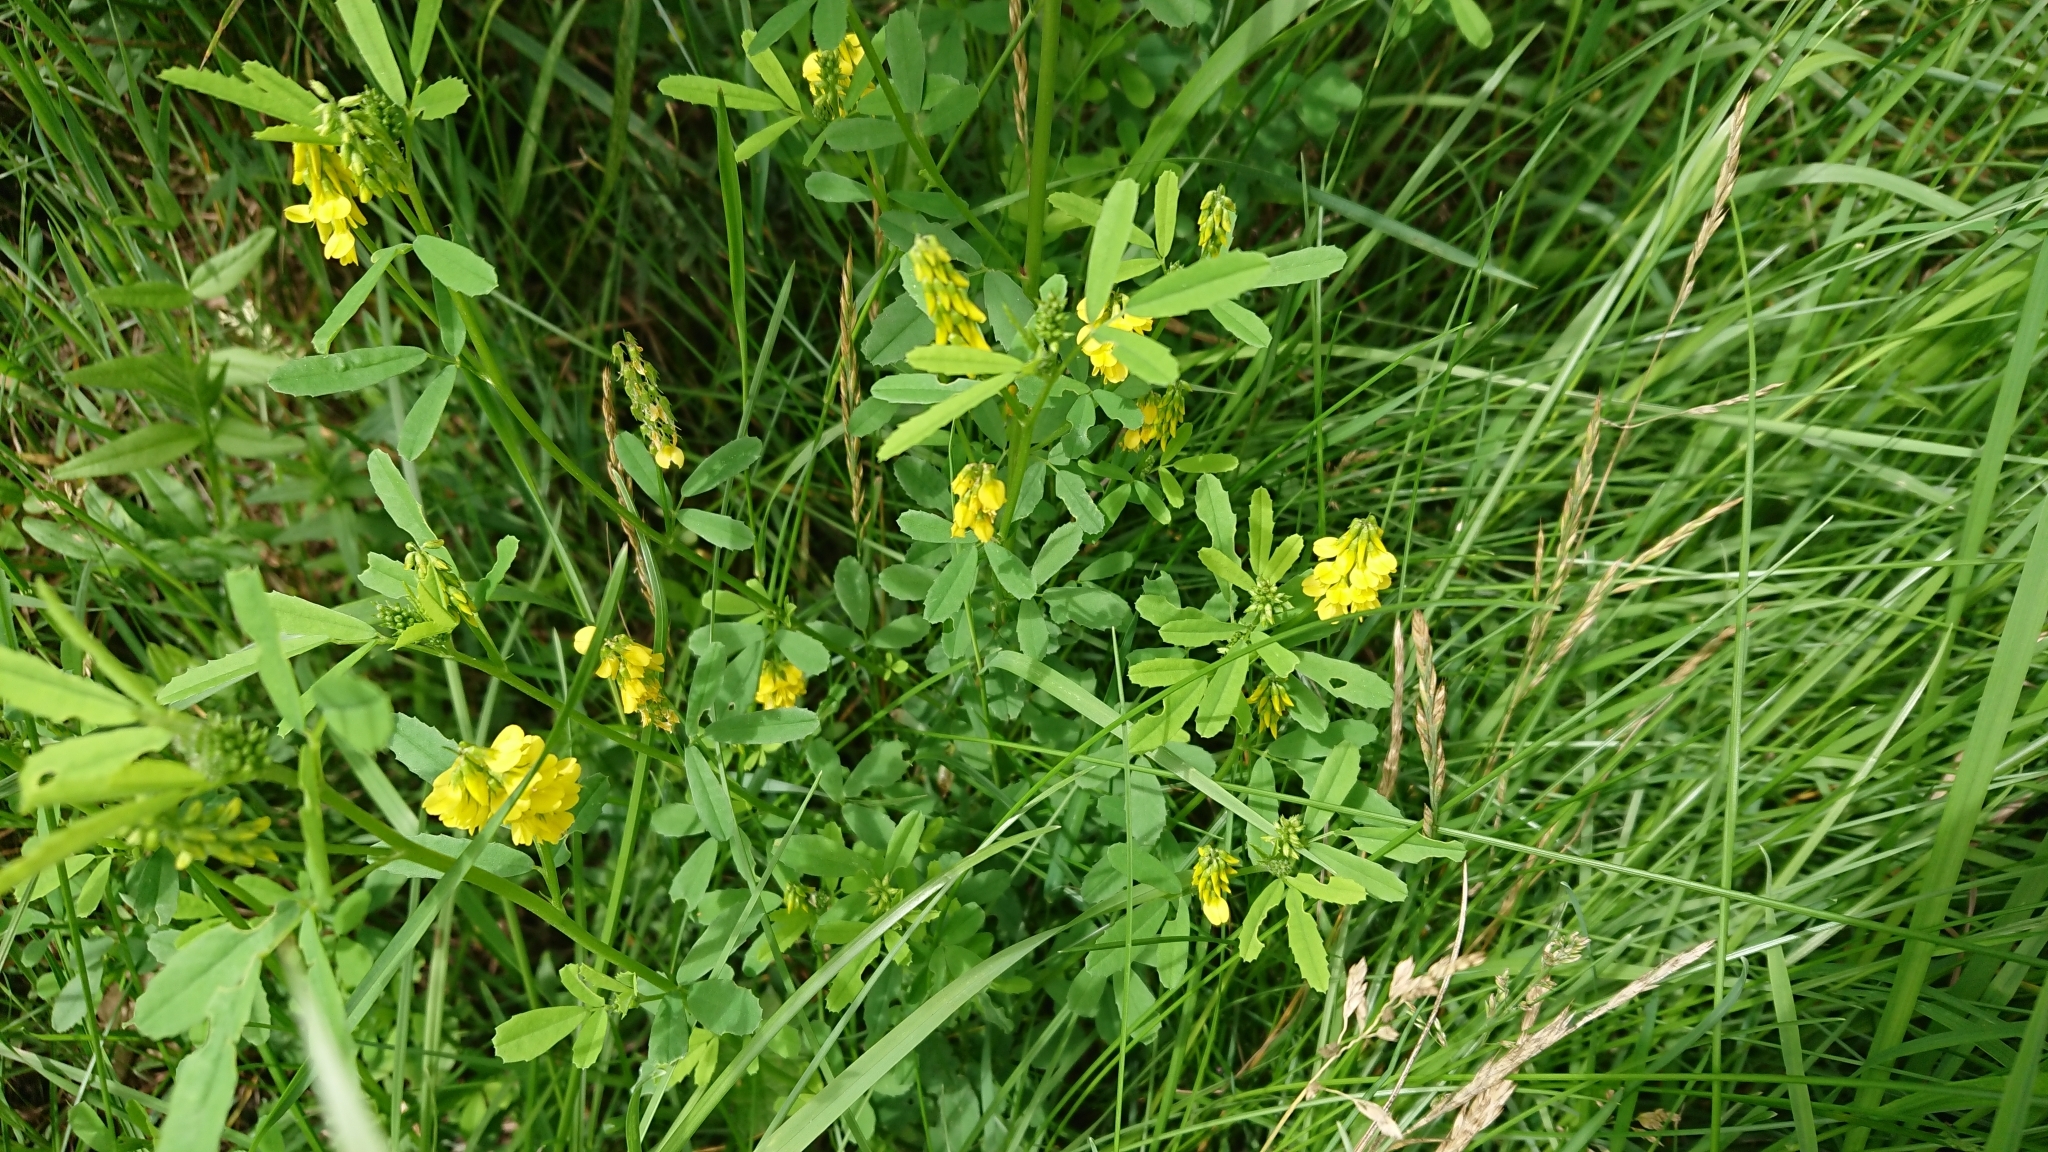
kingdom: Plantae
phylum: Tracheophyta
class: Magnoliopsida
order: Fabales
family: Fabaceae
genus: Melilotus
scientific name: Melilotus officinalis
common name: Sweetclover
